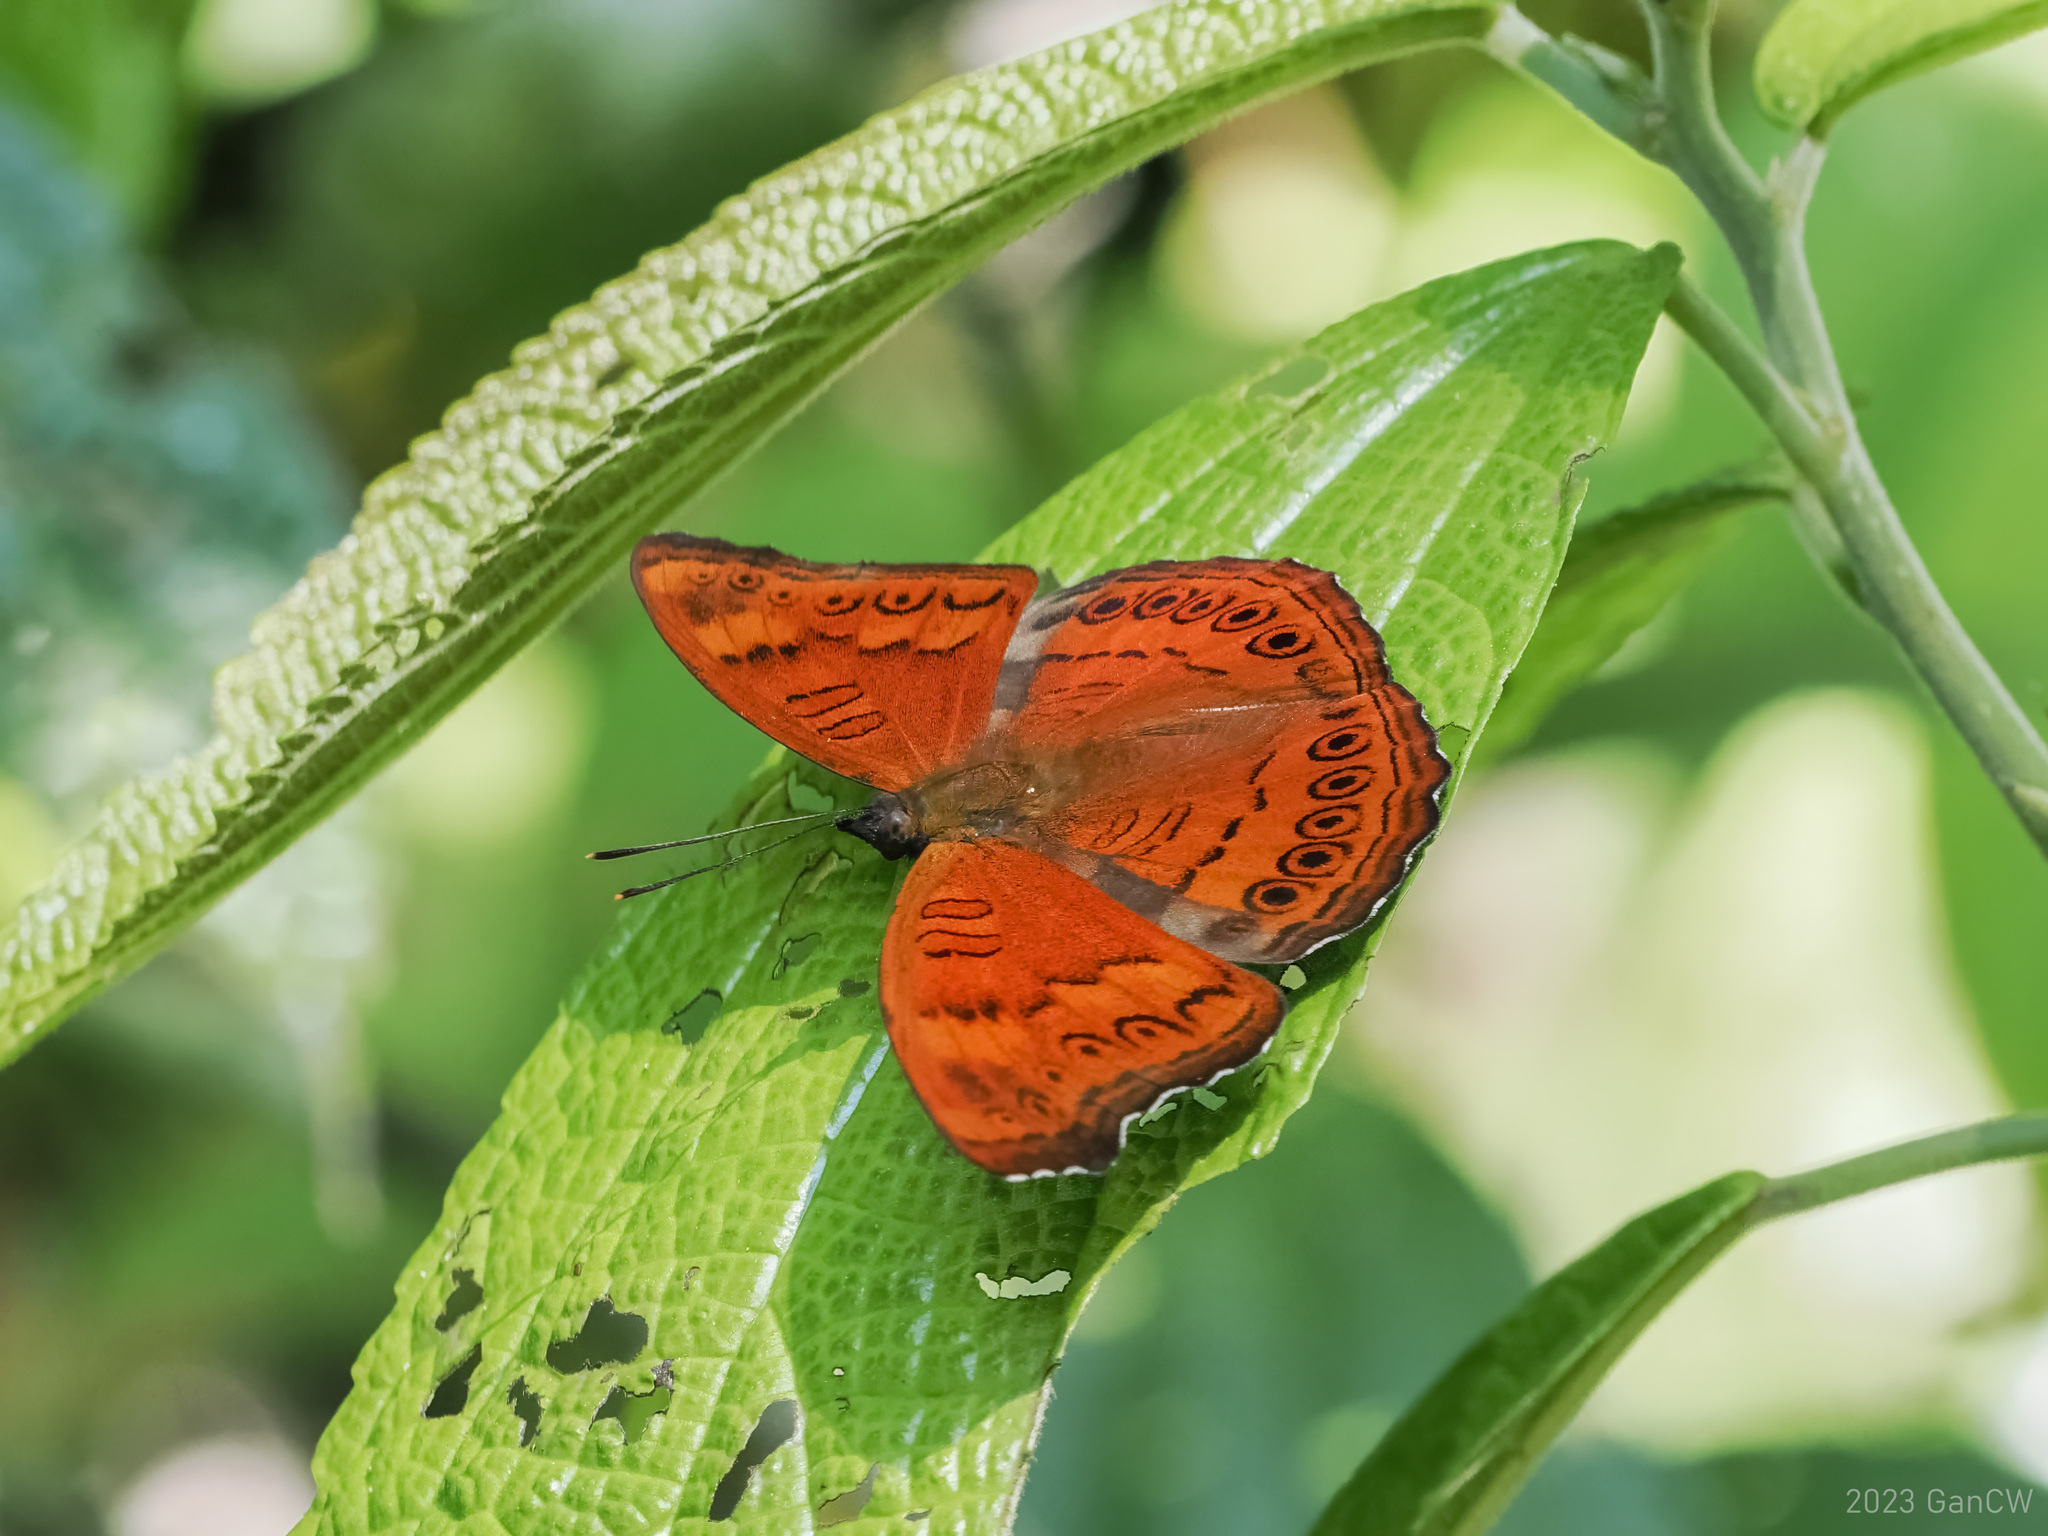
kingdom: Animalia
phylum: Arthropoda
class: Insecta
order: Lepidoptera
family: Nymphalidae
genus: Pseudergolis
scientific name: Pseudergolis avesta
